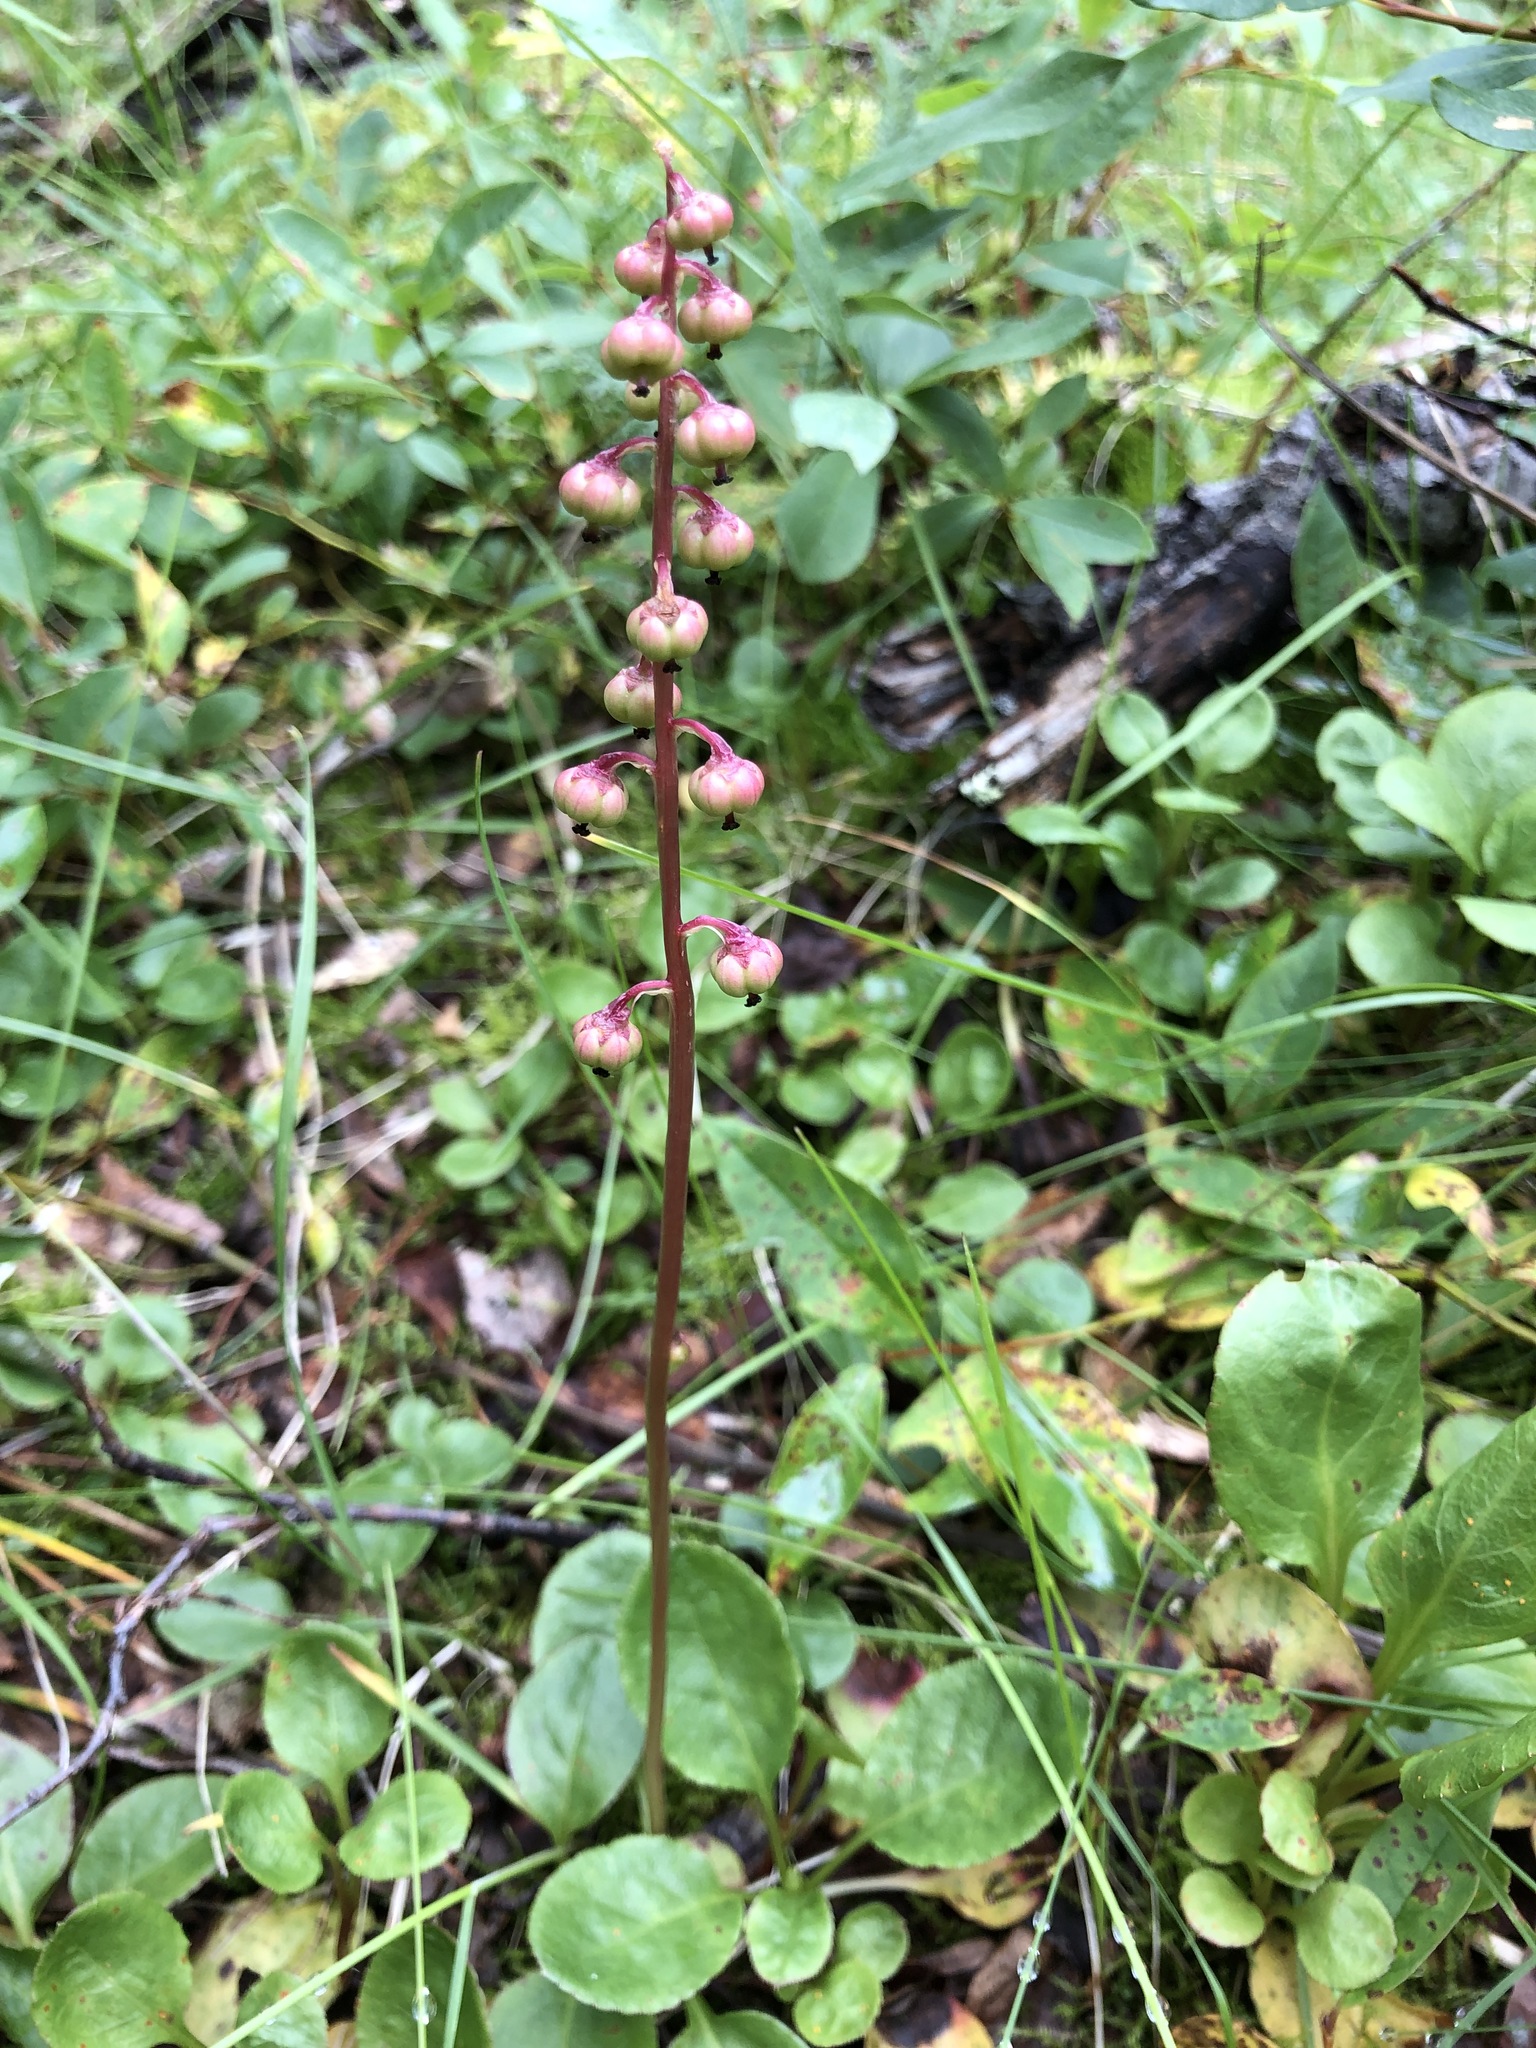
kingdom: Plantae
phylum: Tracheophyta
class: Magnoliopsida
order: Ericales
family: Ericaceae
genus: Pyrola
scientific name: Pyrola minor
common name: Common wintergreen
